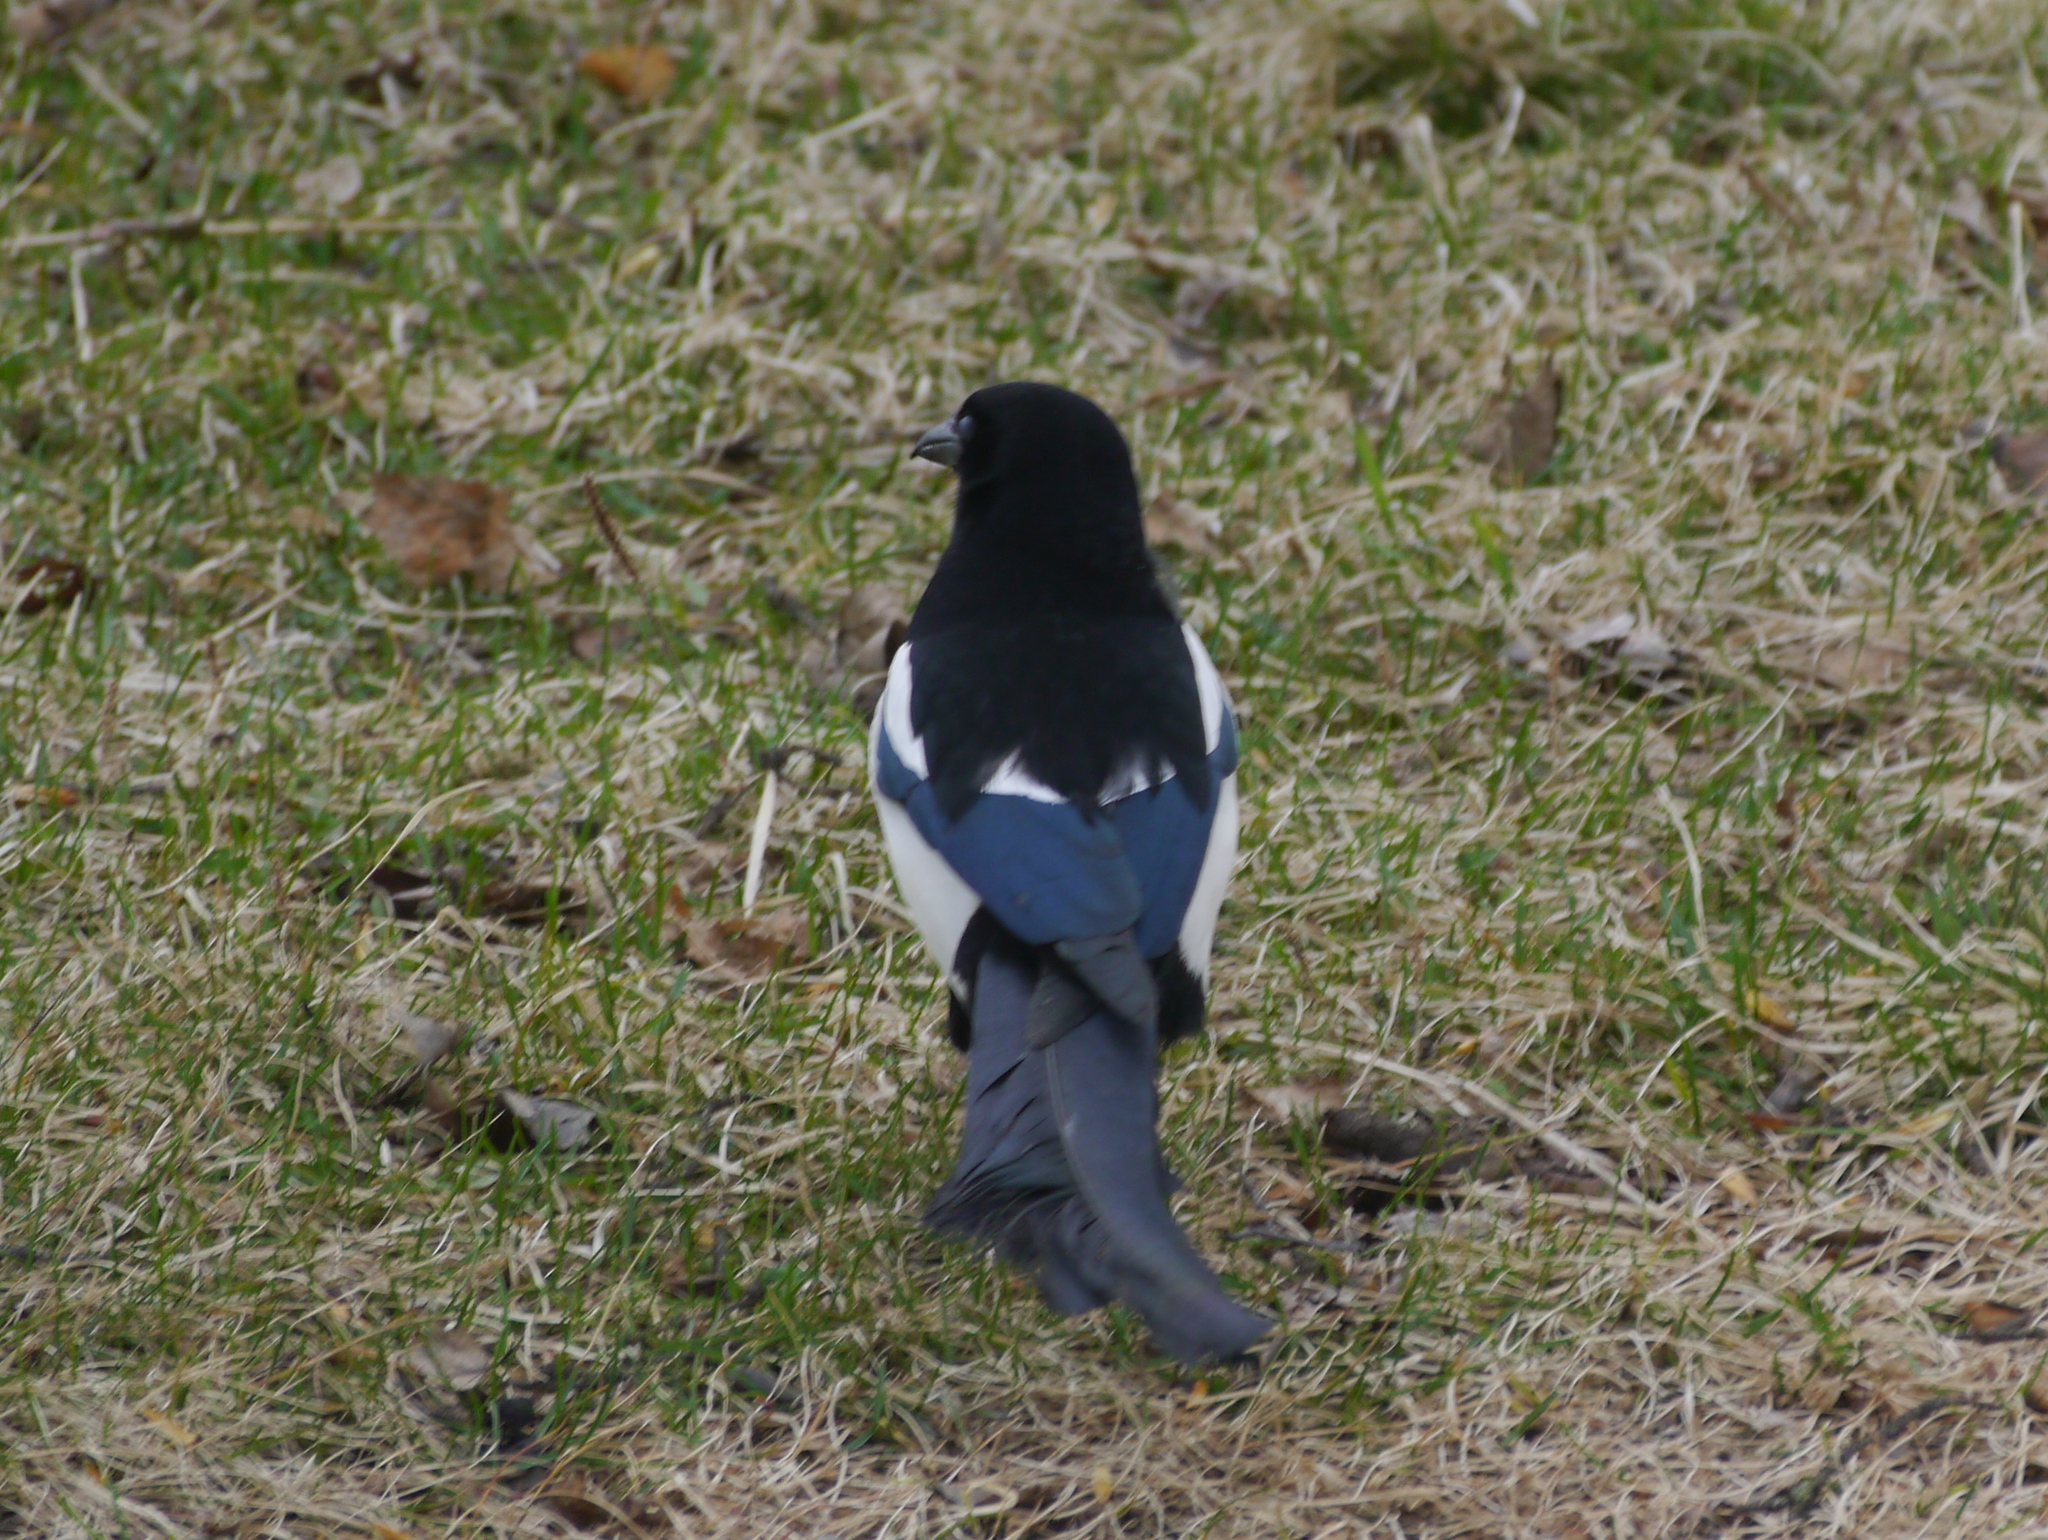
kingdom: Animalia
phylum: Chordata
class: Aves
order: Passeriformes
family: Corvidae
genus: Pica
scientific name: Pica hudsonia
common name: Black-billed magpie
